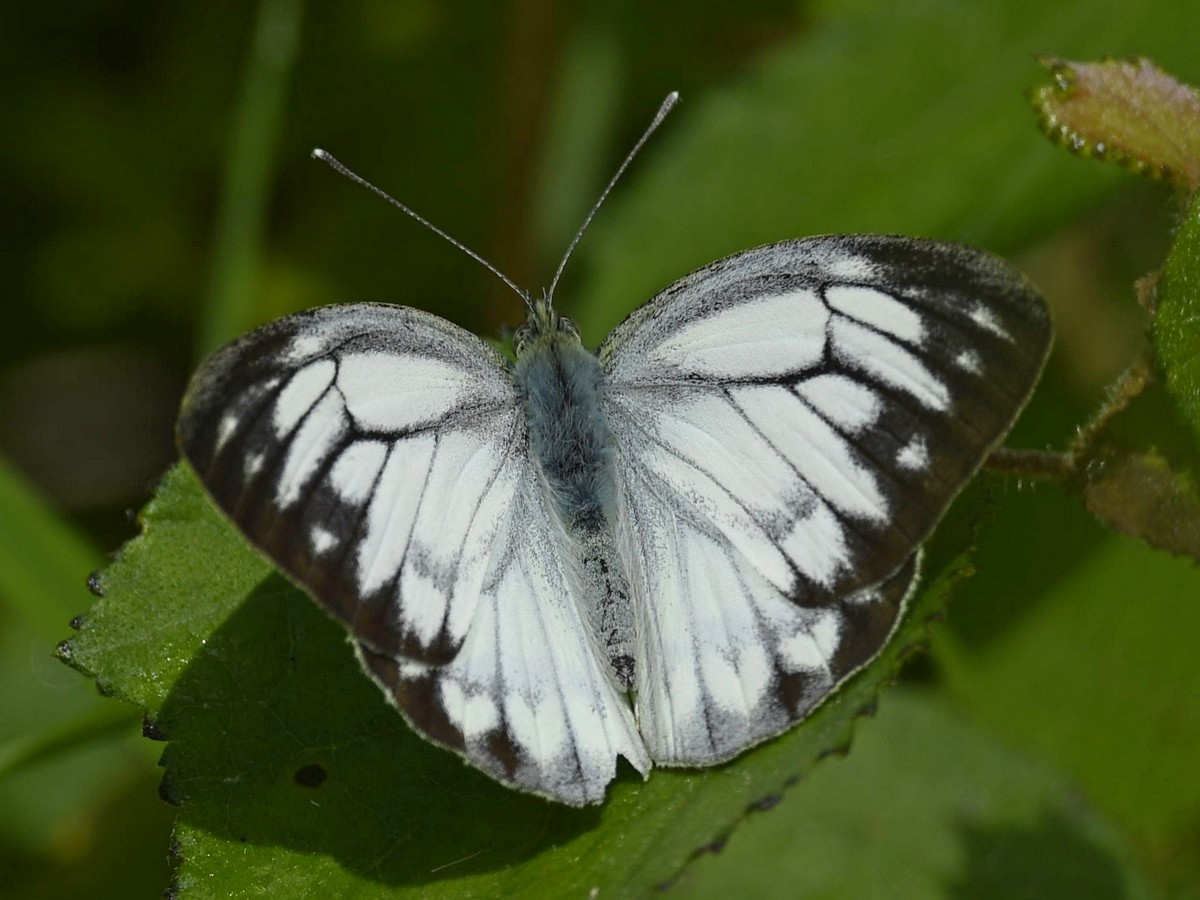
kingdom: Animalia
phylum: Arthropoda
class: Insecta
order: Lepidoptera
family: Pieridae
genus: Cepora
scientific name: Cepora nerissa
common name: Common gull
